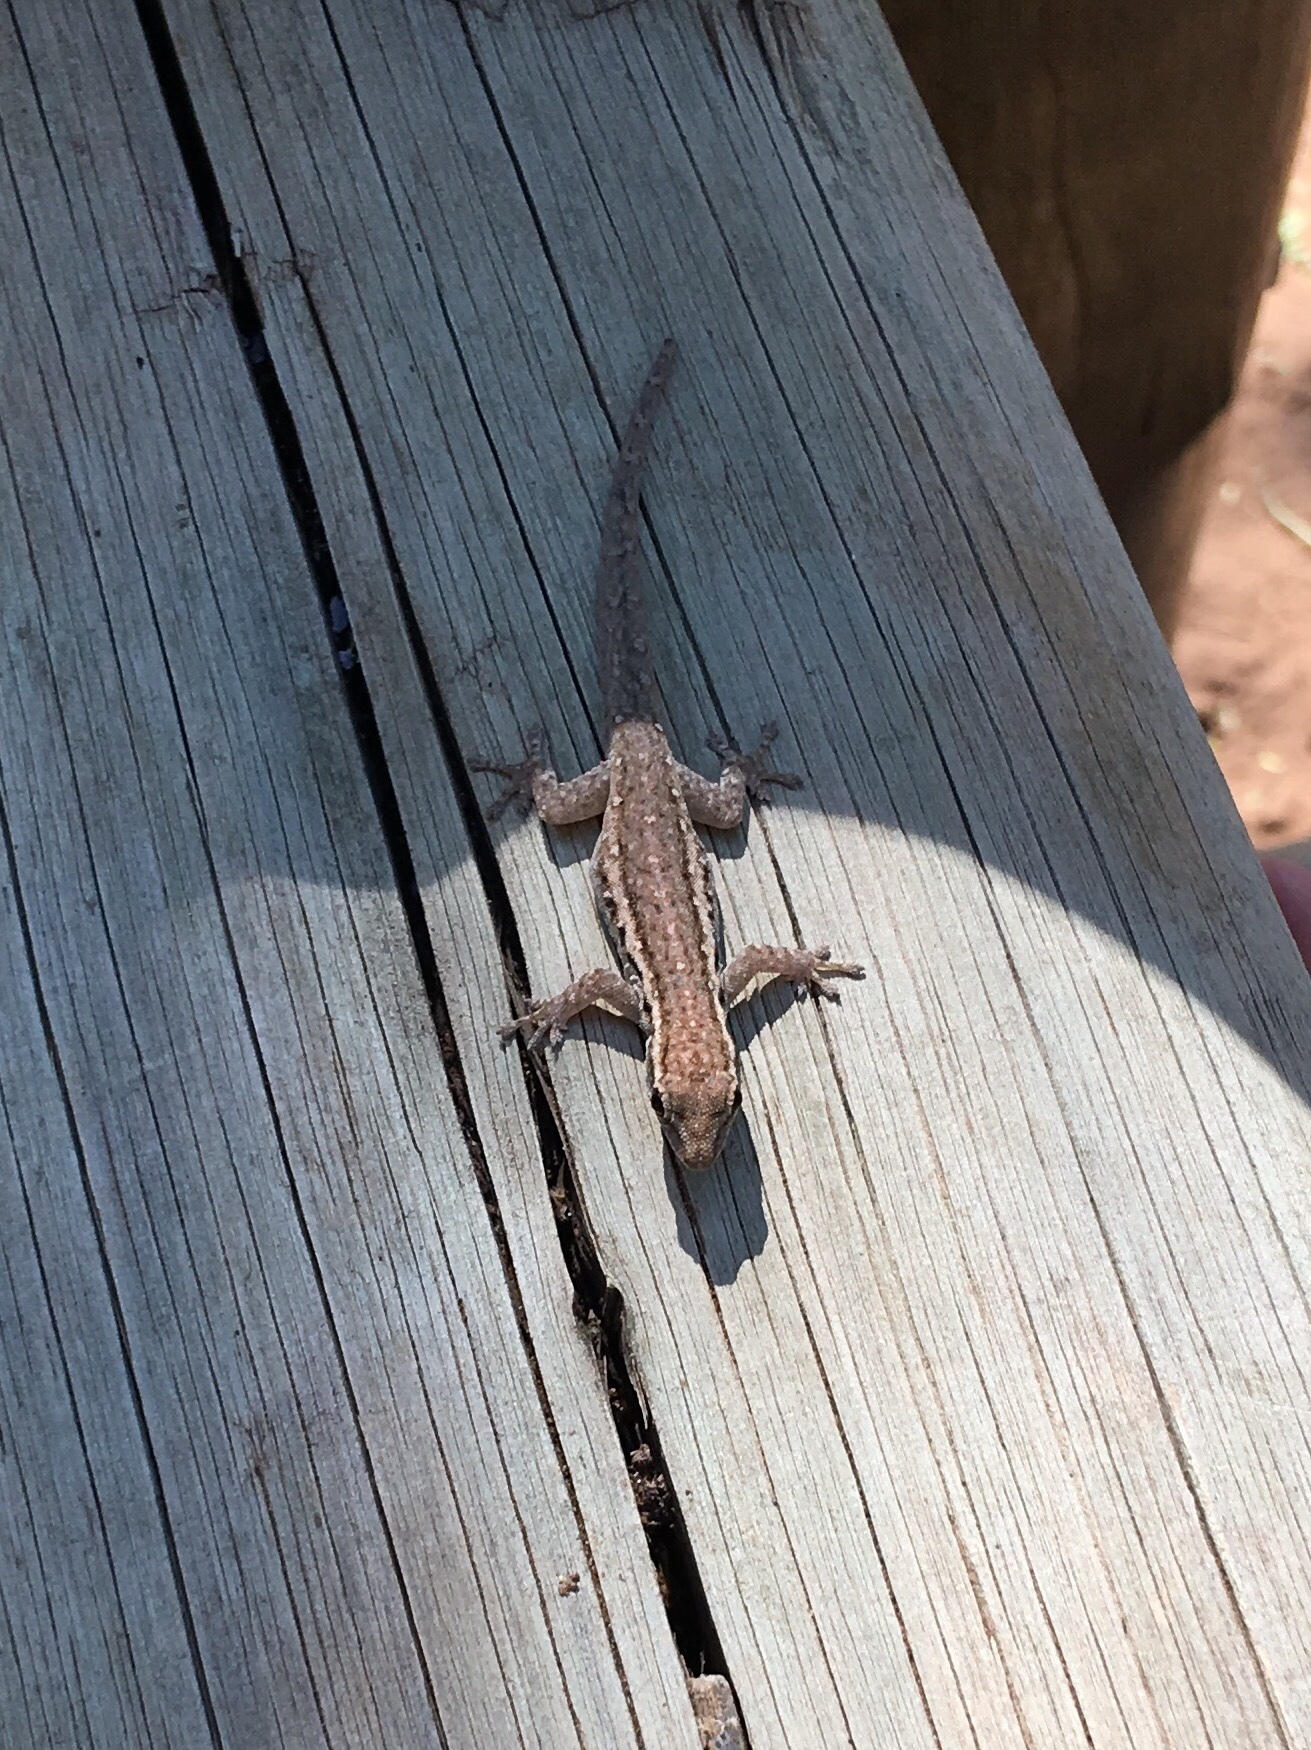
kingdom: Animalia
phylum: Chordata
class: Squamata
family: Gekkonidae
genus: Lygodactylus
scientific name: Lygodactylus capensis
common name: Cape dwarf gecko
